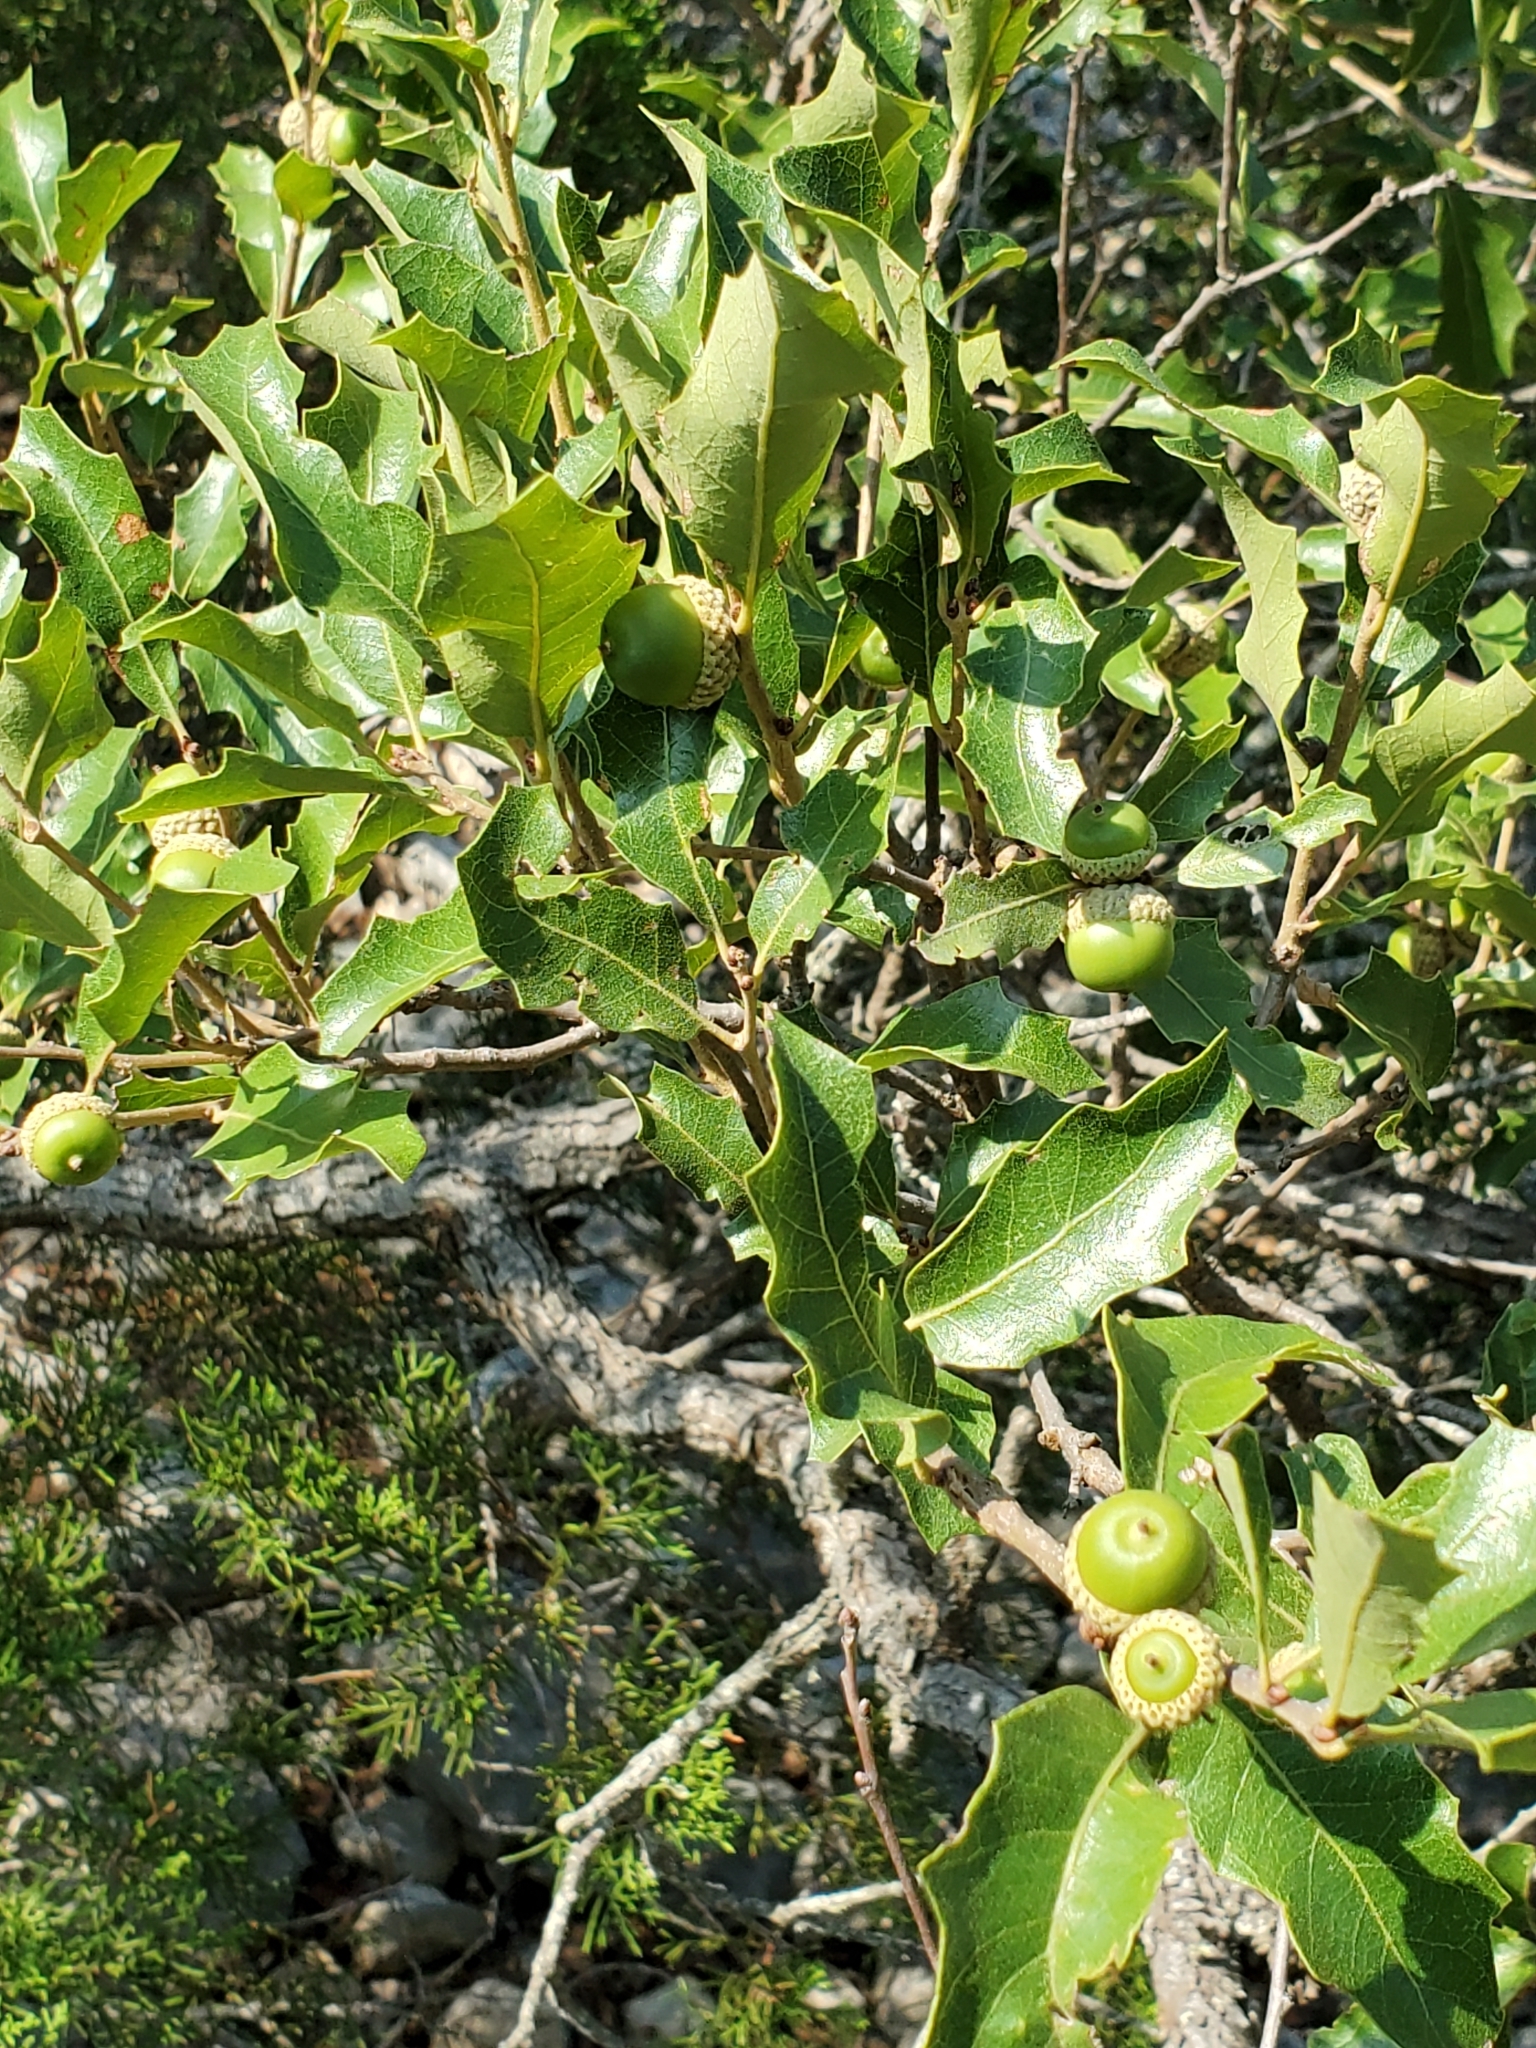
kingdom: Plantae
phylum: Tracheophyta
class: Magnoliopsida
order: Fagales
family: Fagaceae
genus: Quercus
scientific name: Quercus sinuata
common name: Durand oak
